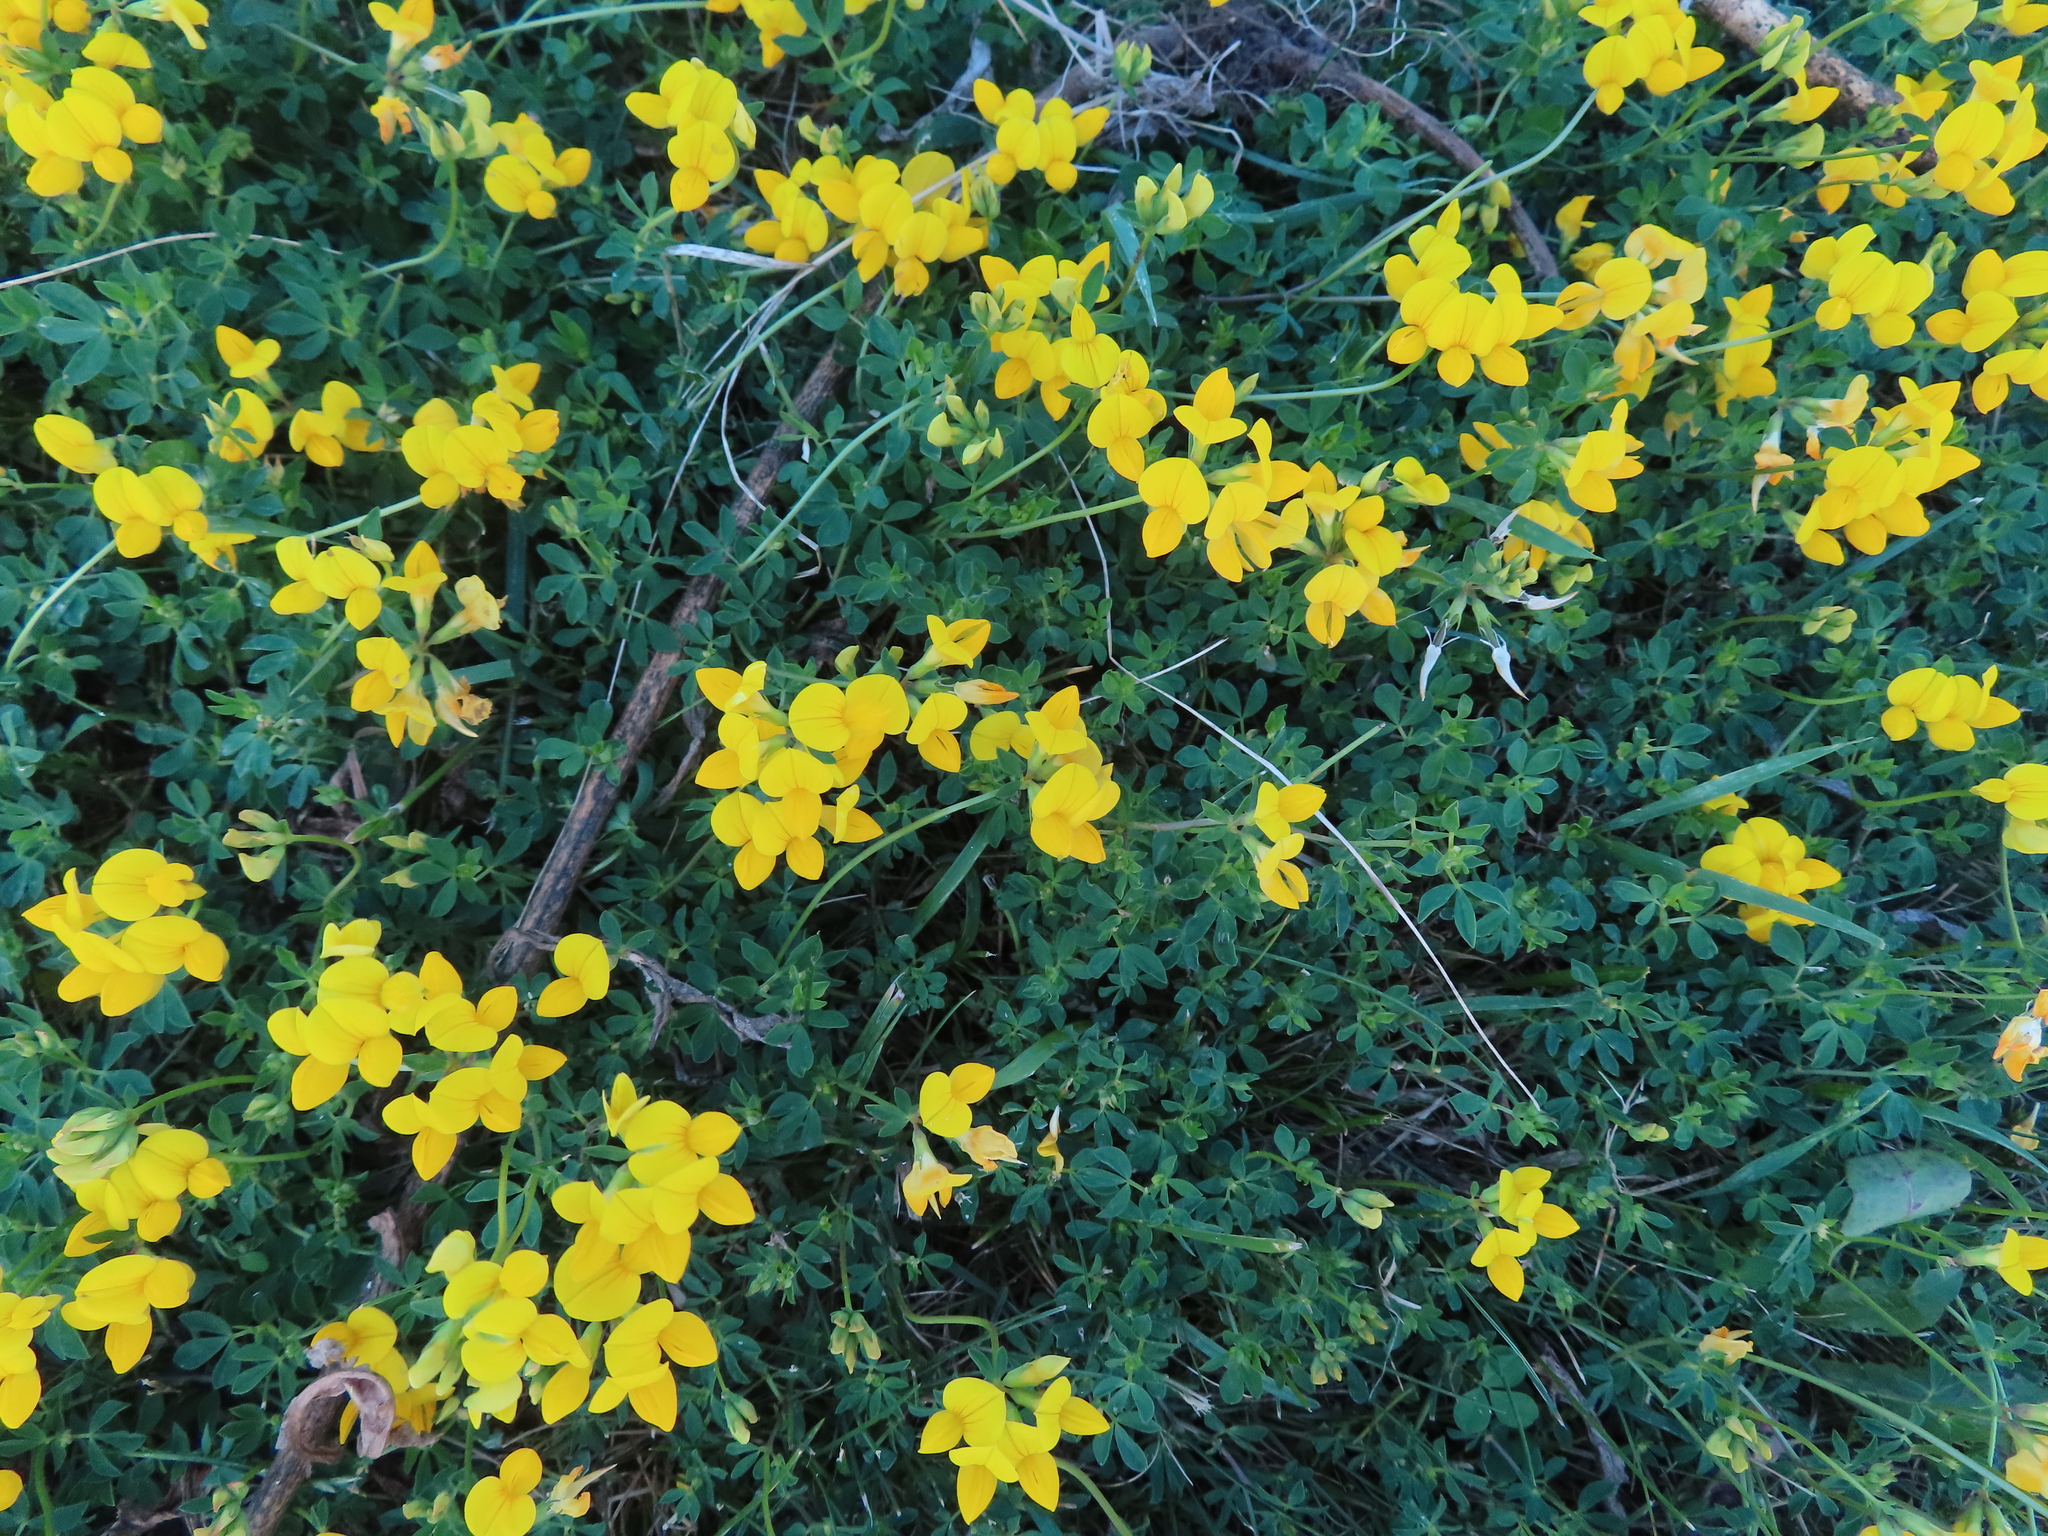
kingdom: Plantae
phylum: Tracheophyta
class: Magnoliopsida
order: Fabales
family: Fabaceae
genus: Lotus
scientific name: Lotus corniculatus
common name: Common bird's-foot-trefoil
